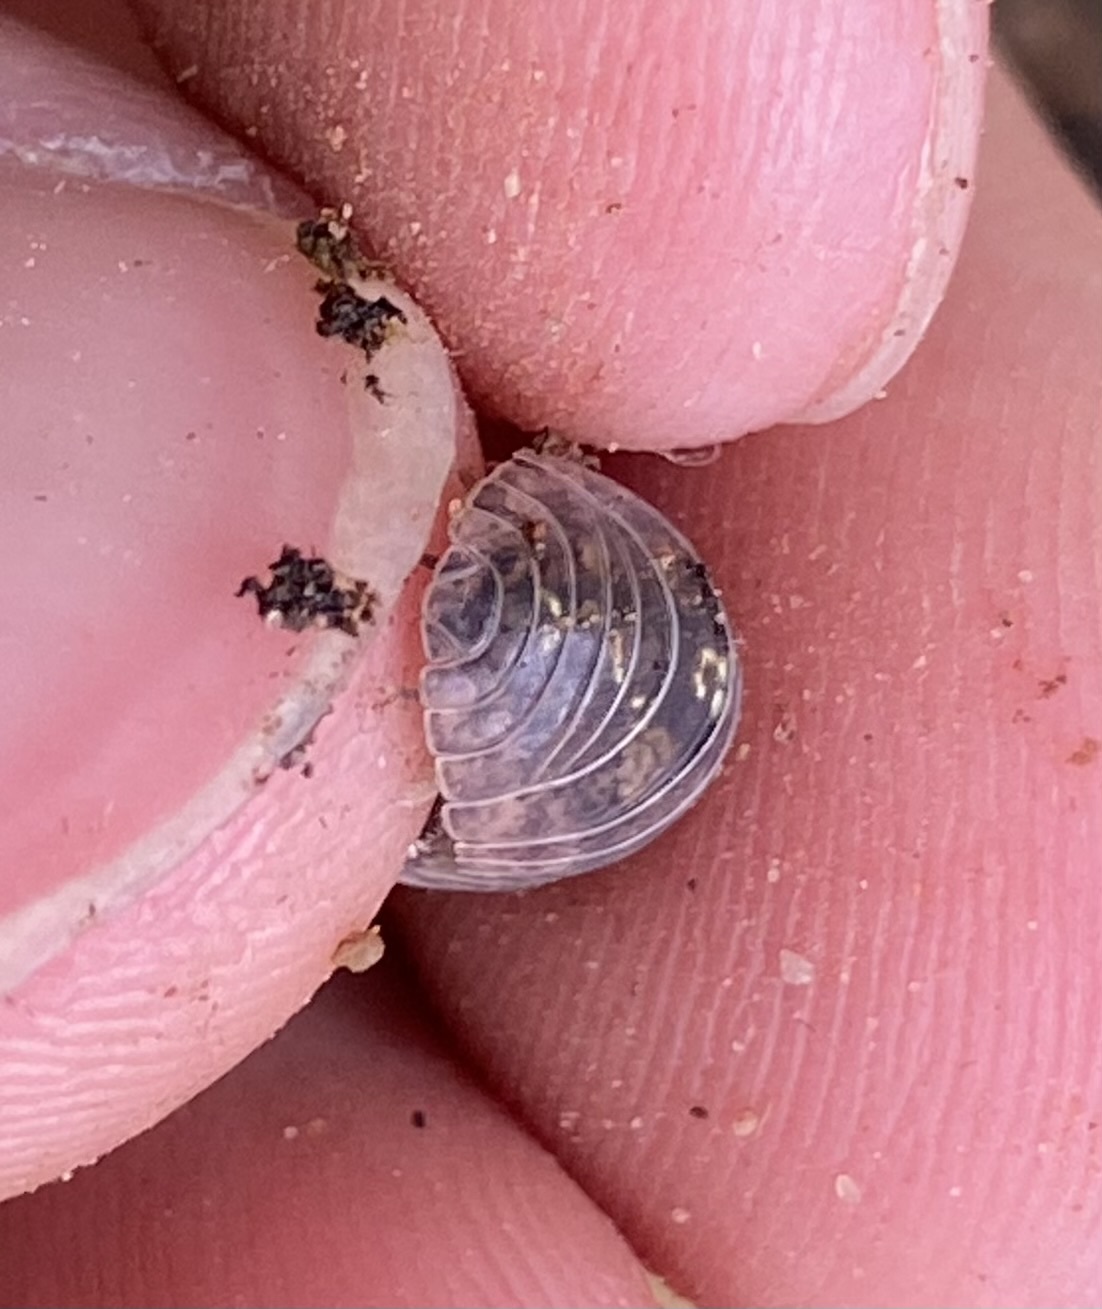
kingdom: Animalia
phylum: Arthropoda
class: Malacostraca
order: Isopoda
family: Armadillidiidae
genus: Armadillidium
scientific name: Armadillidium vulgare
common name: Common pill woodlouse
